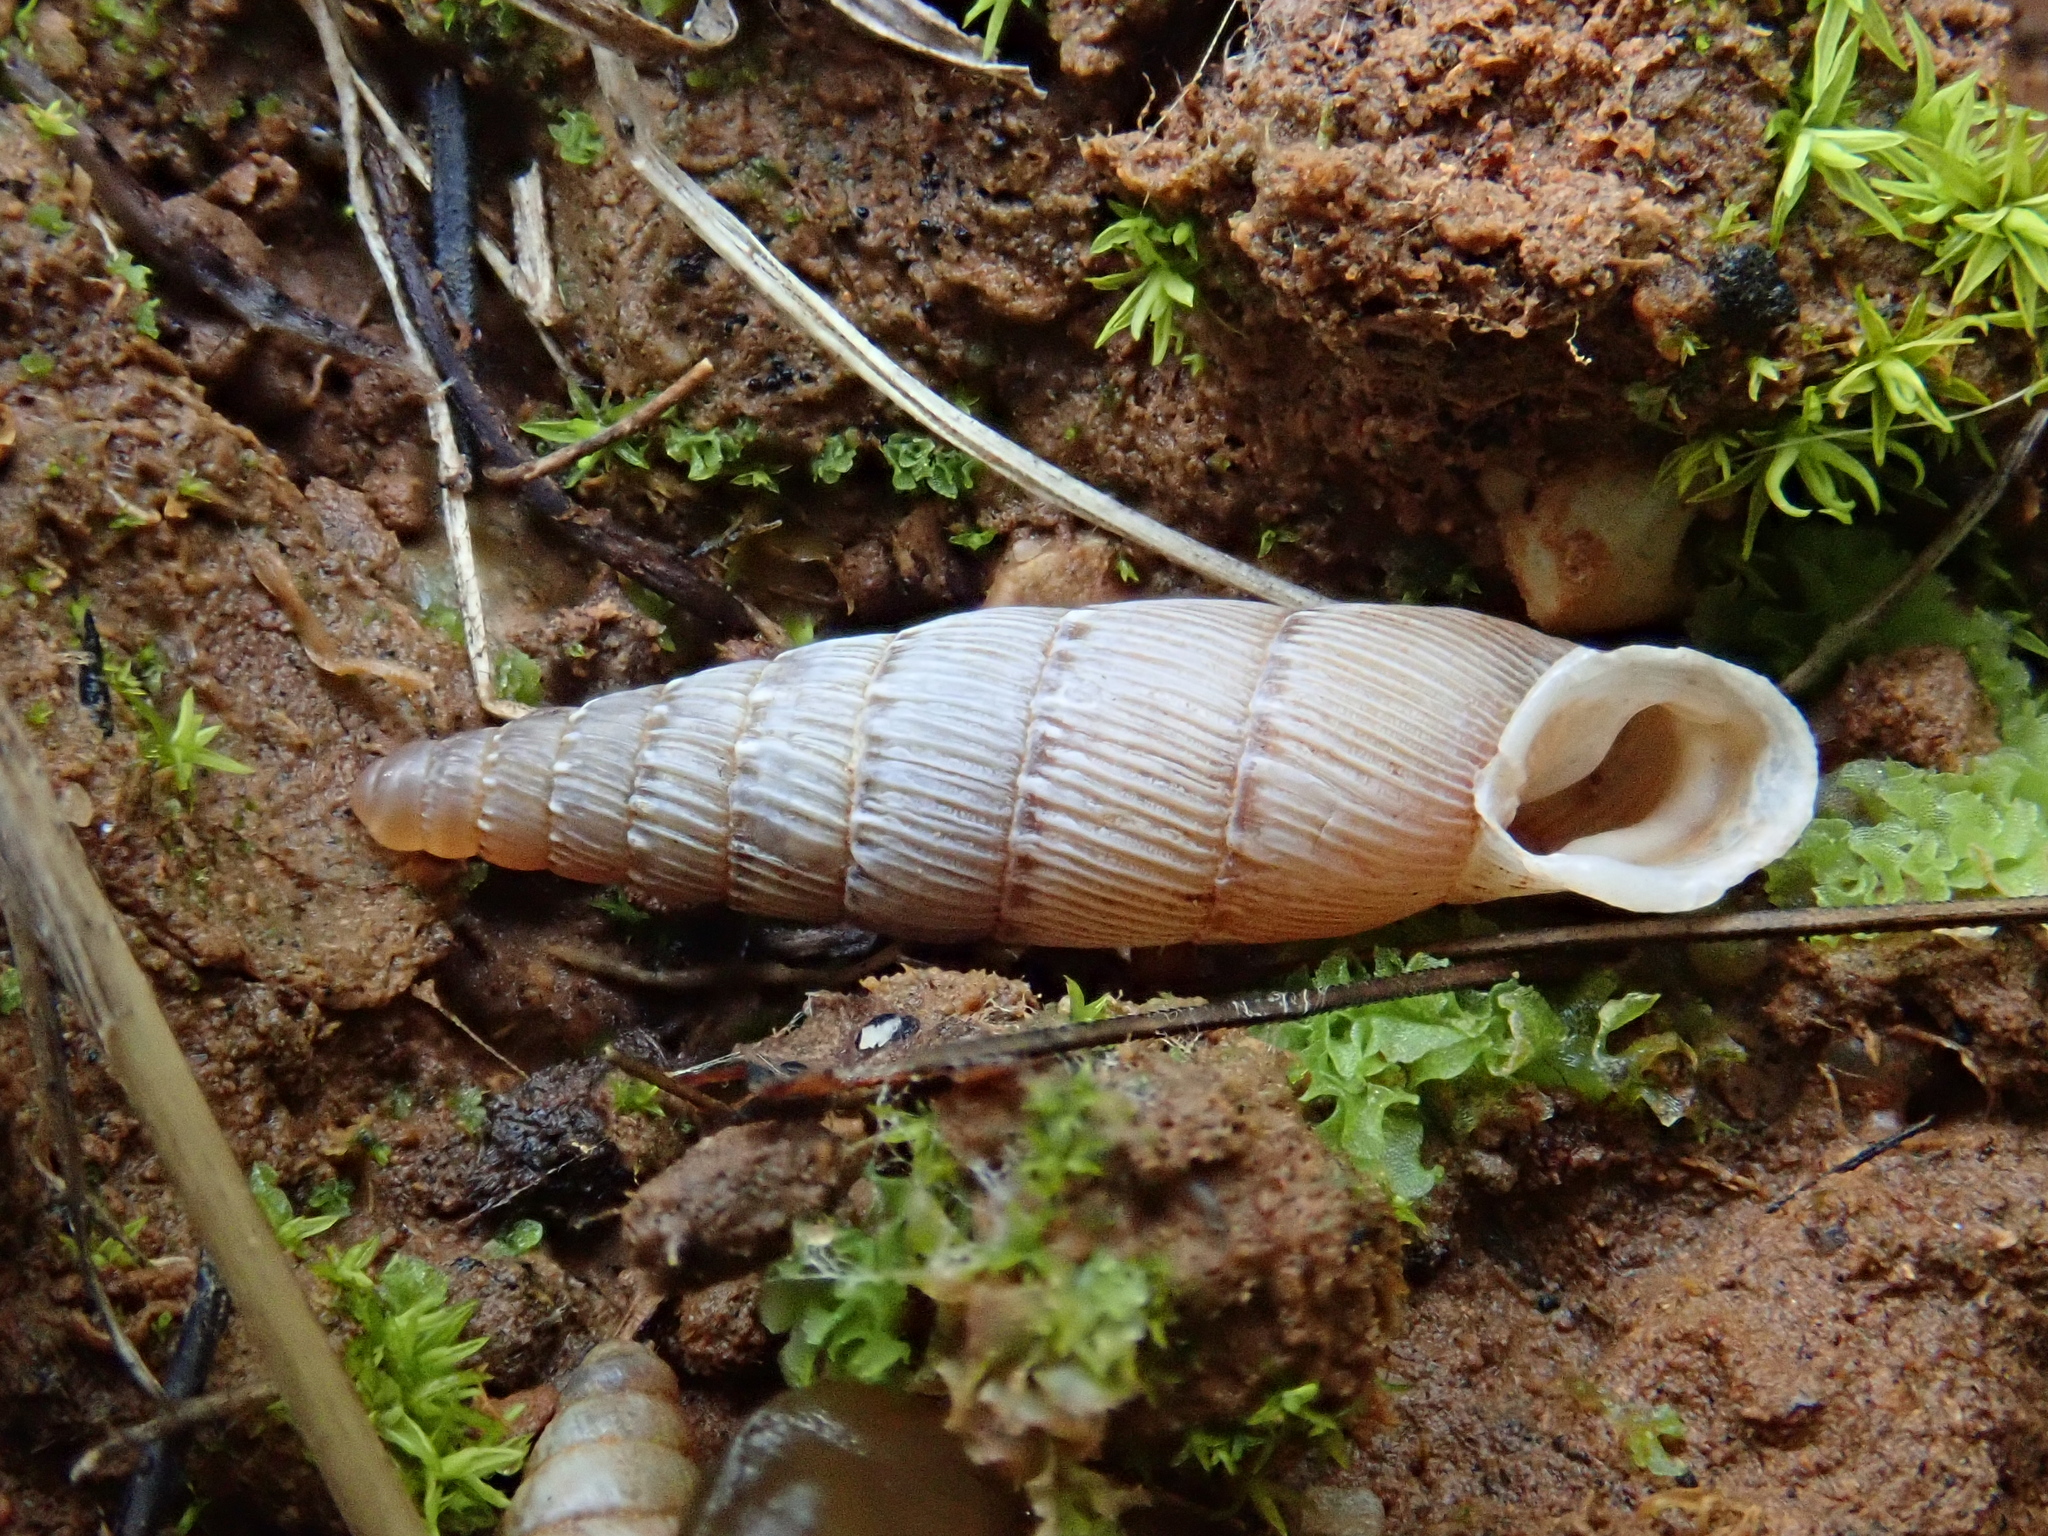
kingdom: Animalia
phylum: Mollusca
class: Gastropoda
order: Stylommatophora
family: Clausiliidae
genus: Papillifera
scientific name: Papillifera papillaris
